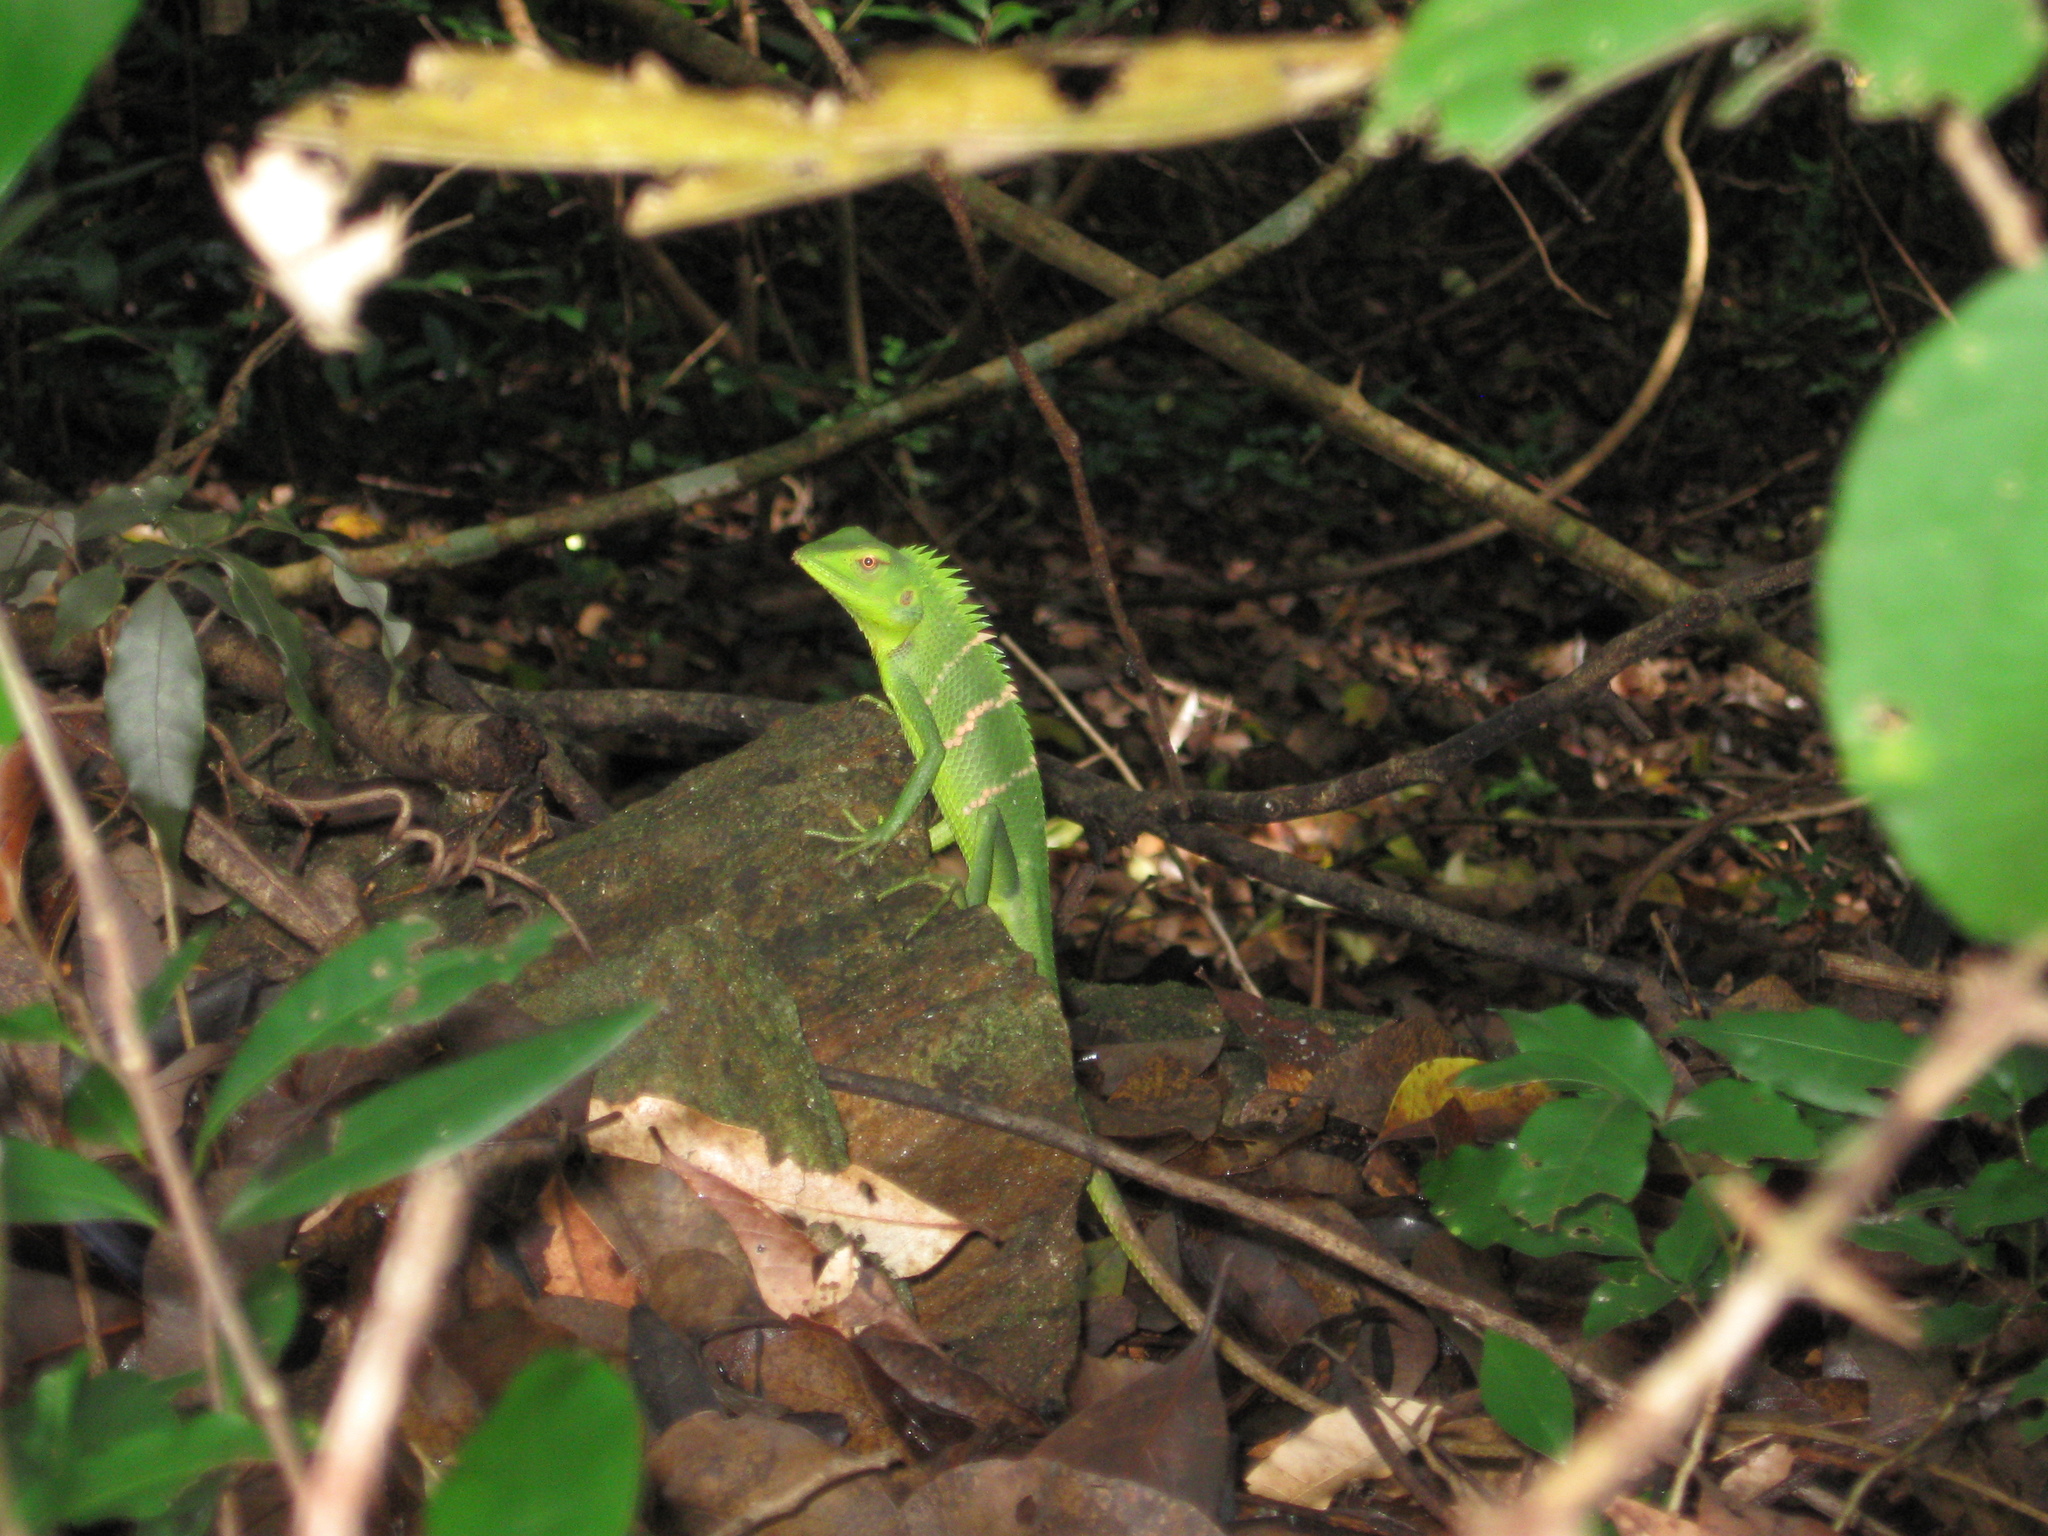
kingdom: Animalia
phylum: Chordata
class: Squamata
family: Agamidae
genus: Calotes
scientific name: Calotes calotes
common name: Common green forest lizard
